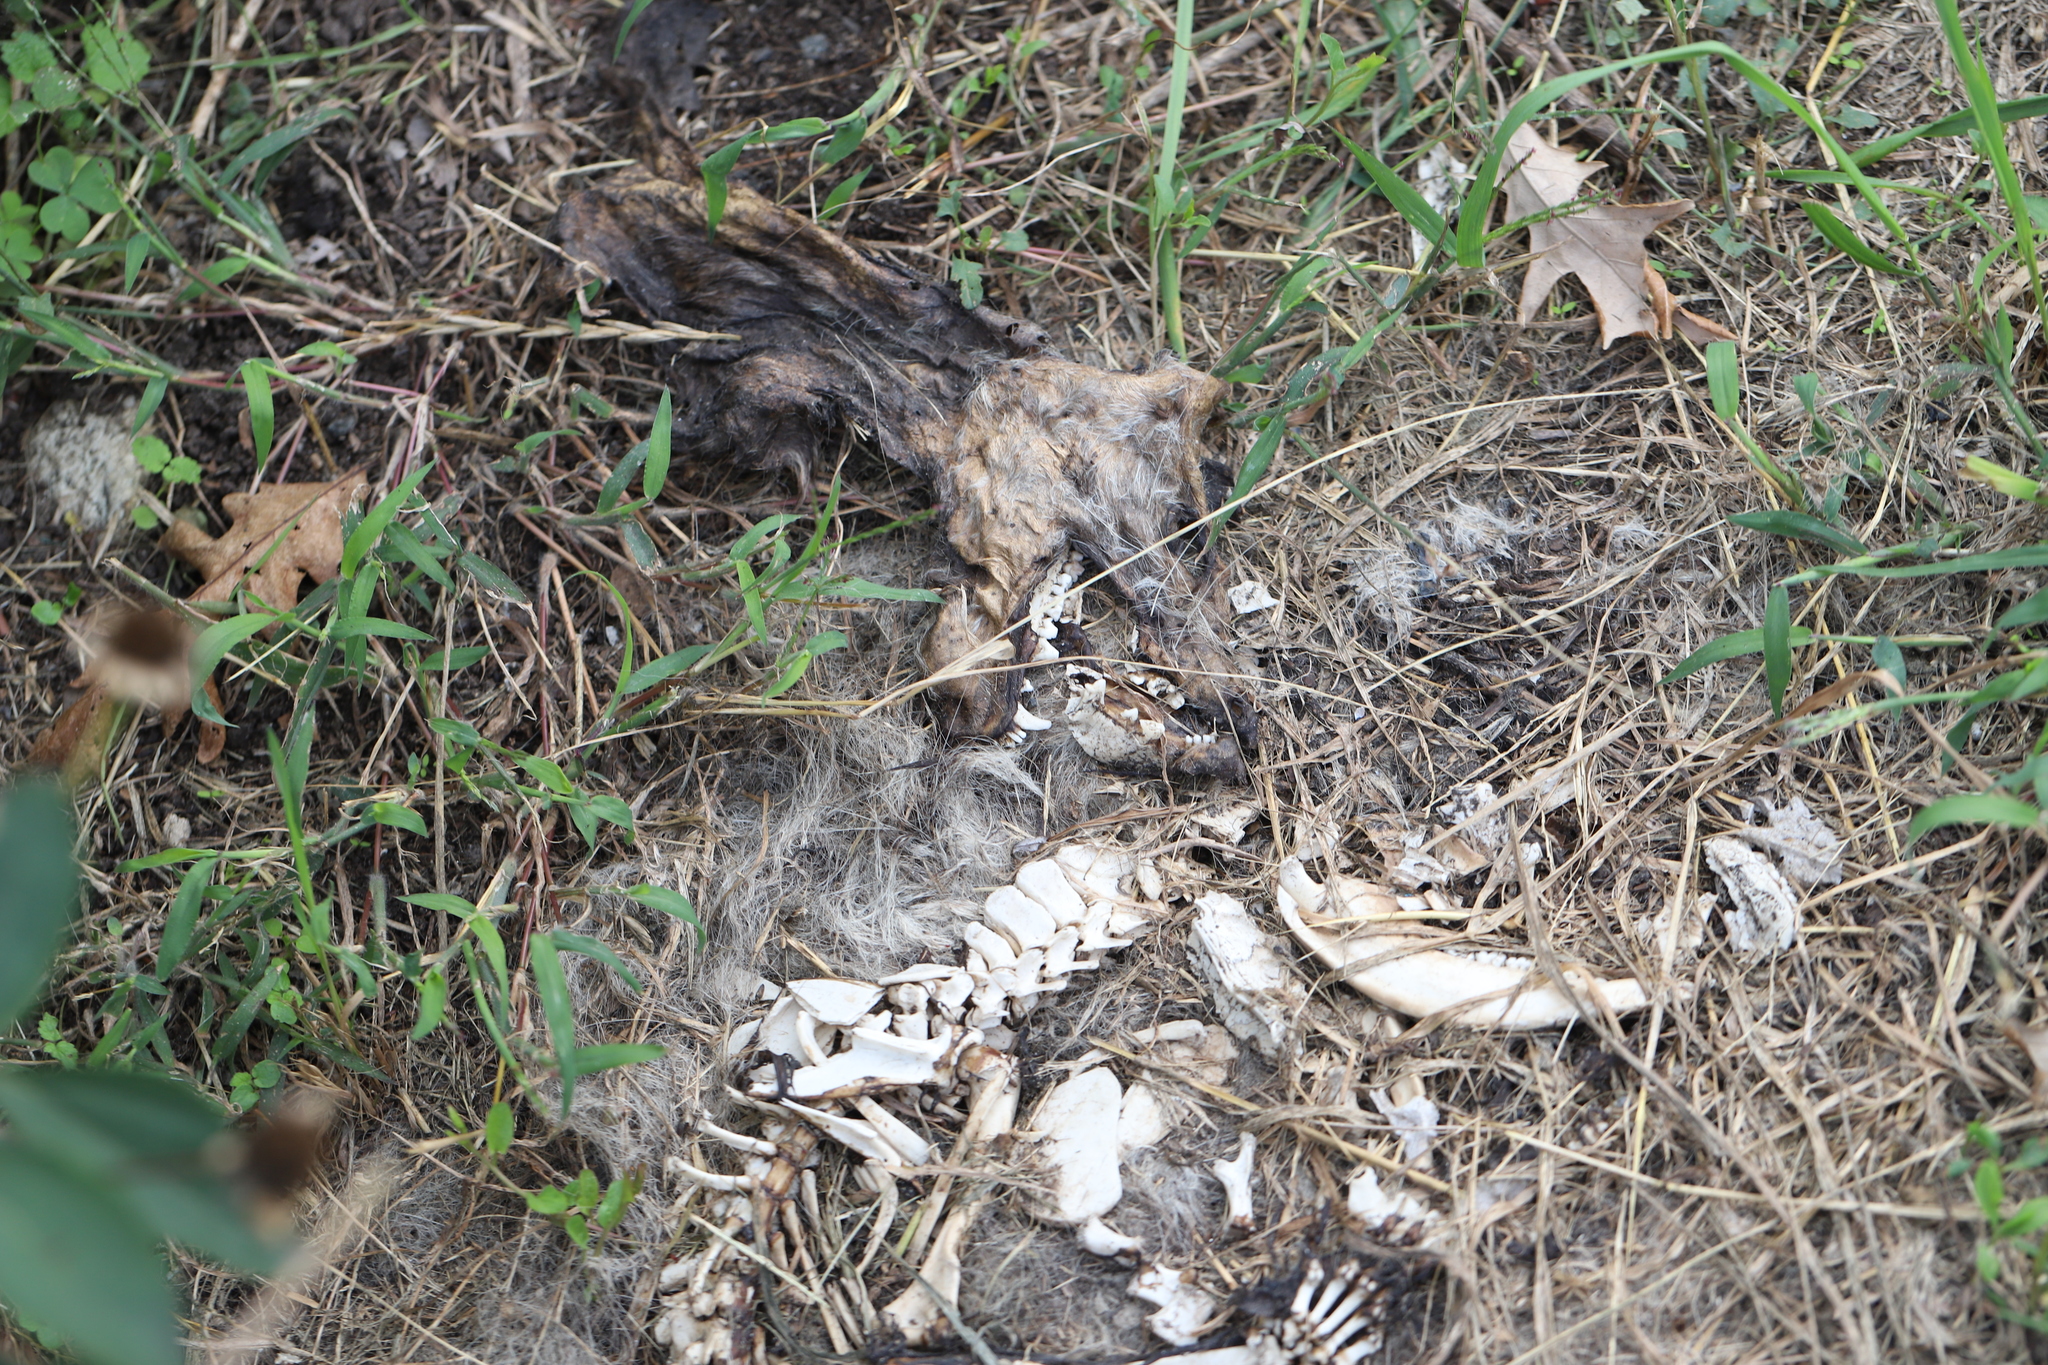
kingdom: Animalia
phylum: Chordata
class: Mammalia
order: Didelphimorphia
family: Didelphidae
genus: Didelphis
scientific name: Didelphis virginiana
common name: Virginia opossum
